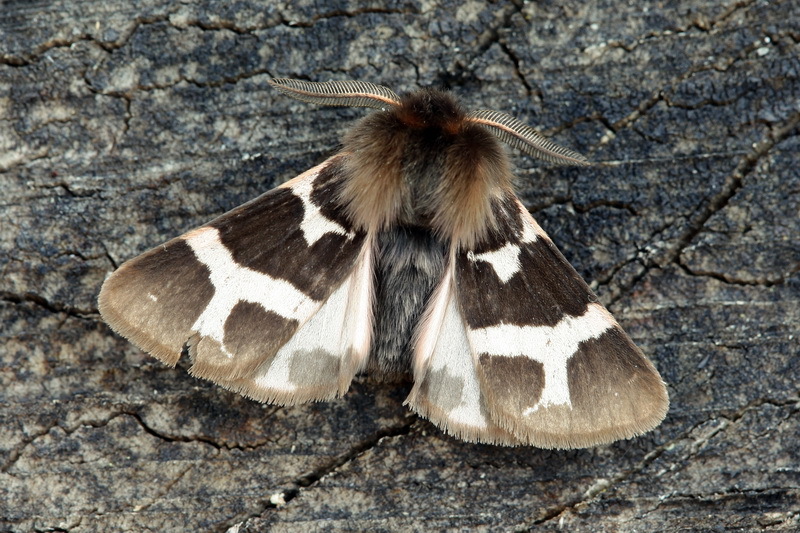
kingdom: Animalia
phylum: Arthropoda
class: Insecta
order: Lepidoptera
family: Erebidae
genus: Watsonarctia
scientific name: Watsonarctia deserta
